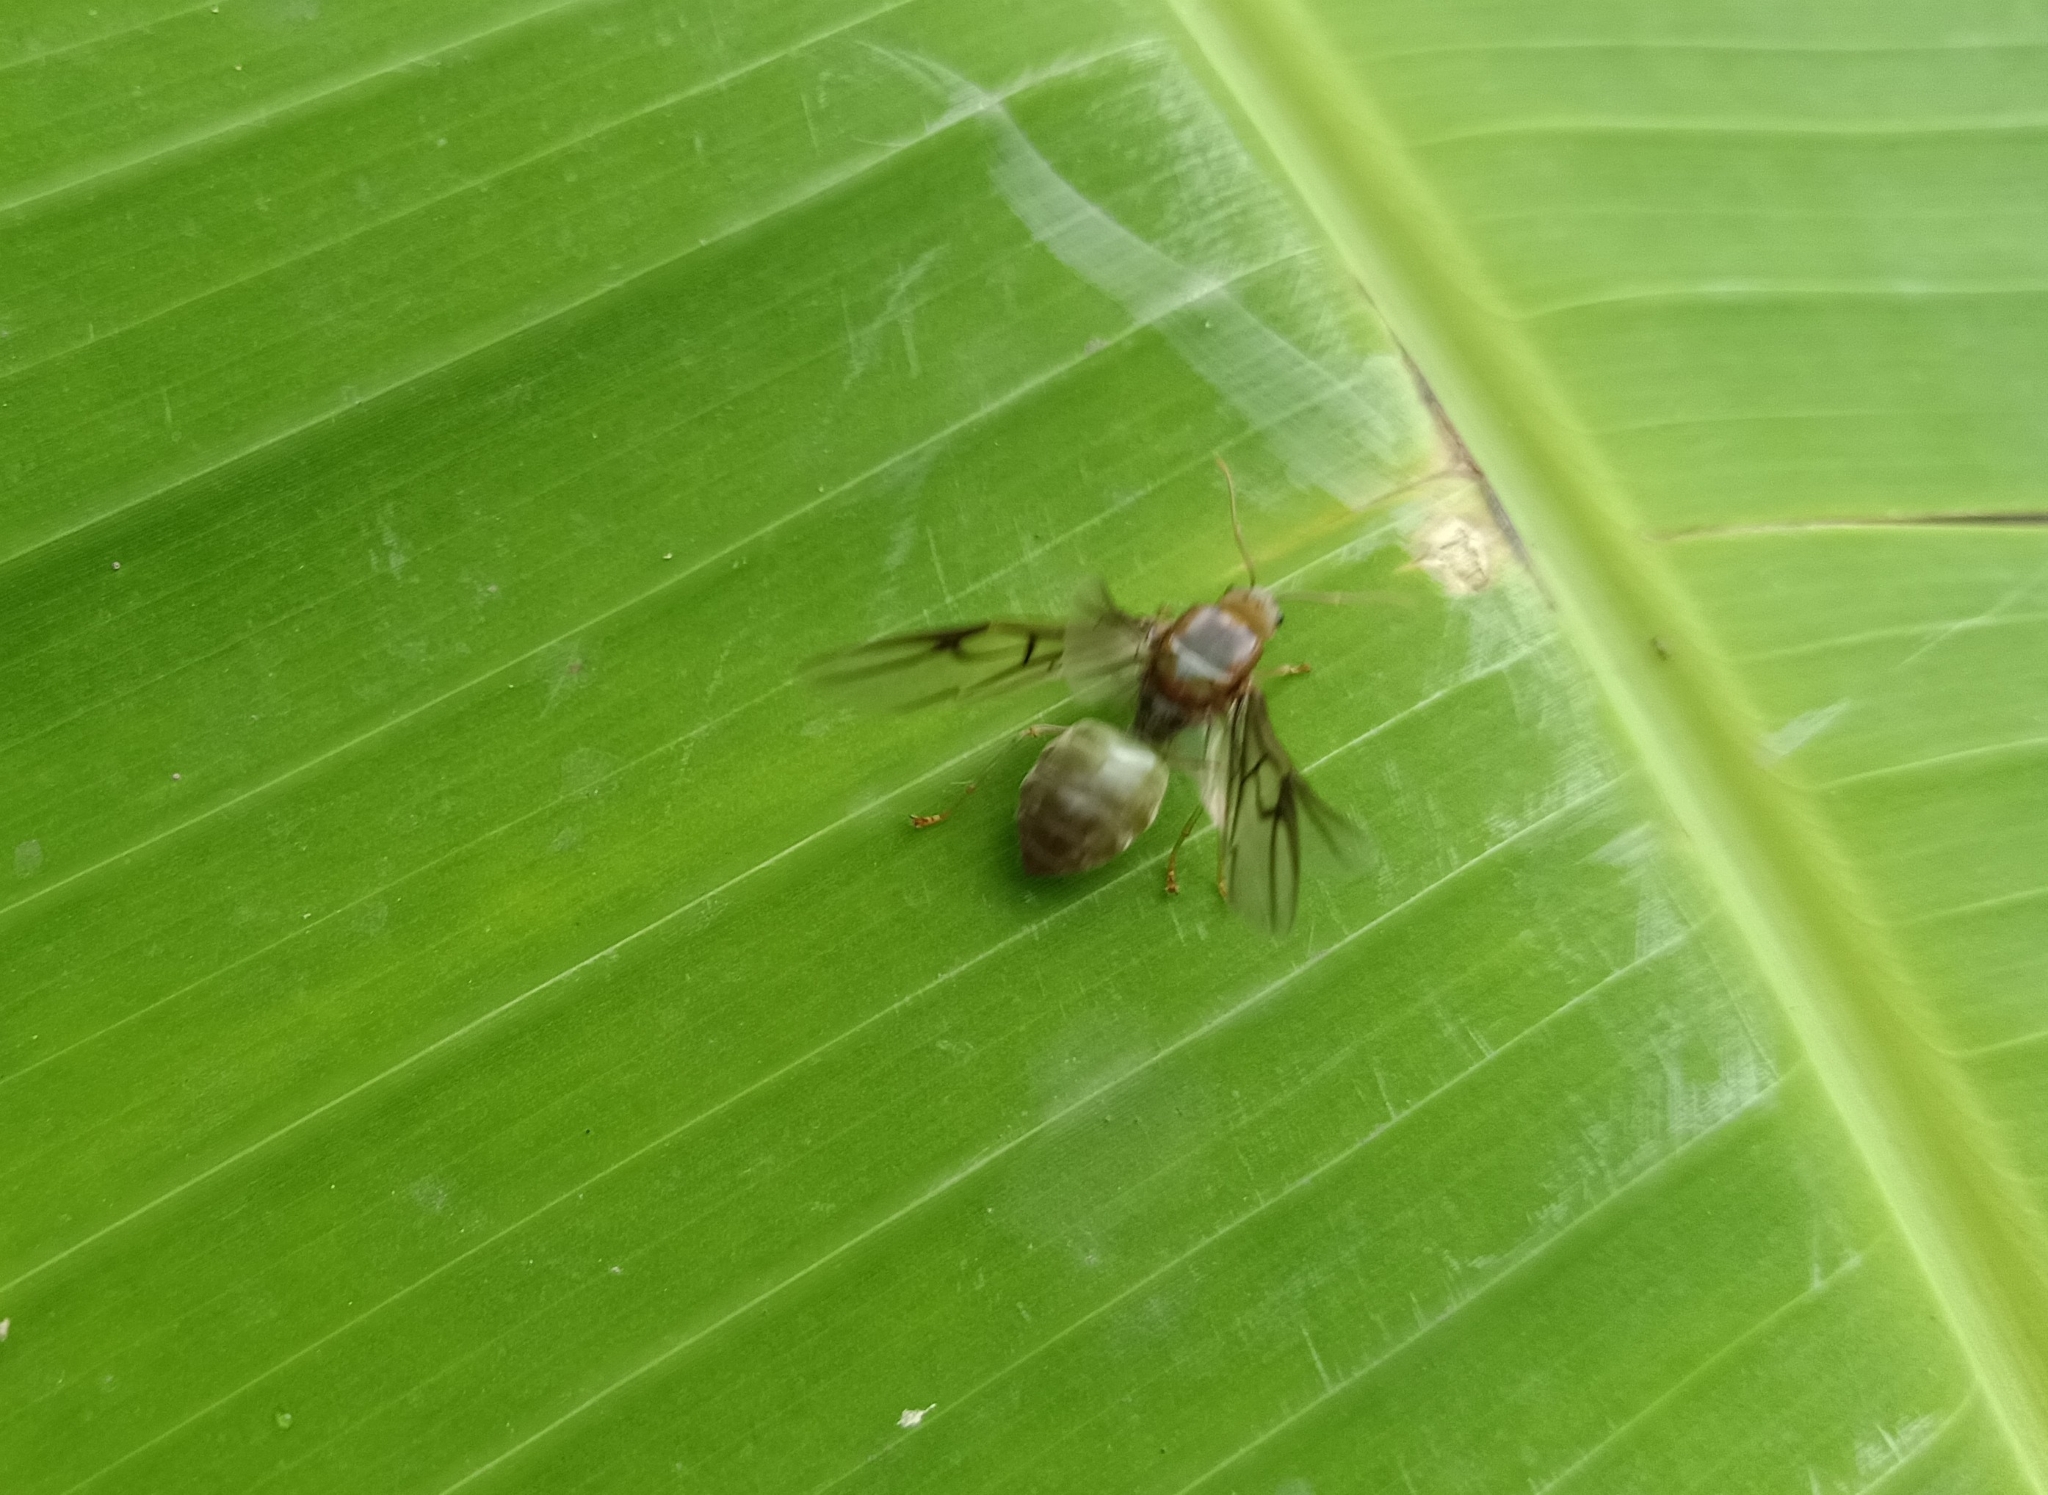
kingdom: Animalia
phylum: Arthropoda
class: Insecta
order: Hymenoptera
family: Formicidae
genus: Oecophylla
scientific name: Oecophylla smaragdina
